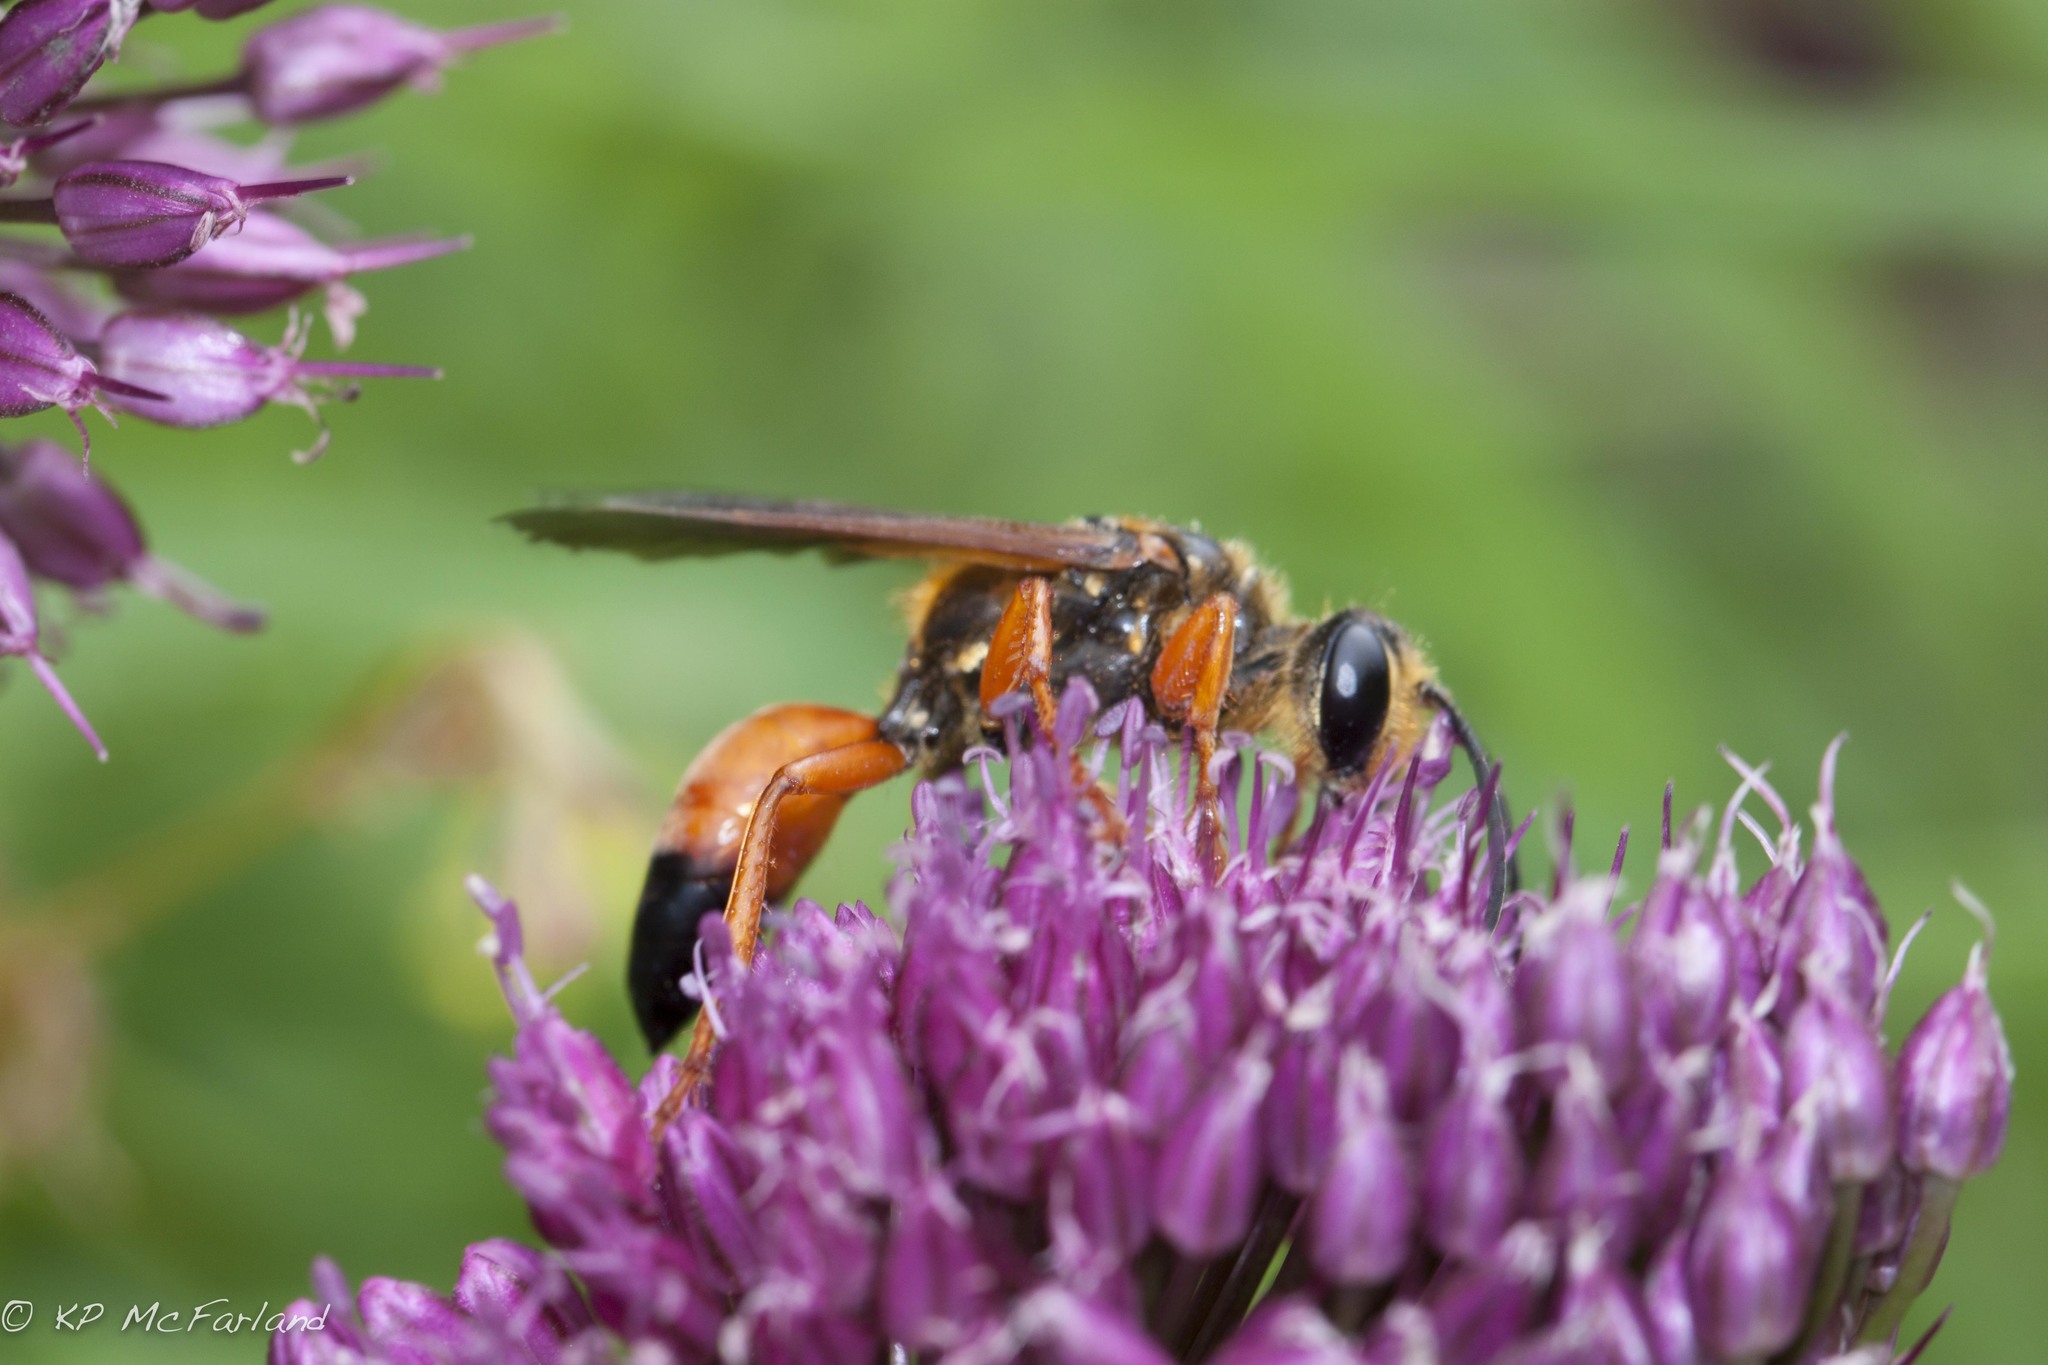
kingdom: Animalia
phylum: Arthropoda
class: Insecta
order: Hymenoptera
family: Sphecidae
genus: Sphex
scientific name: Sphex ichneumoneus
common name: Great golden digger wasp
